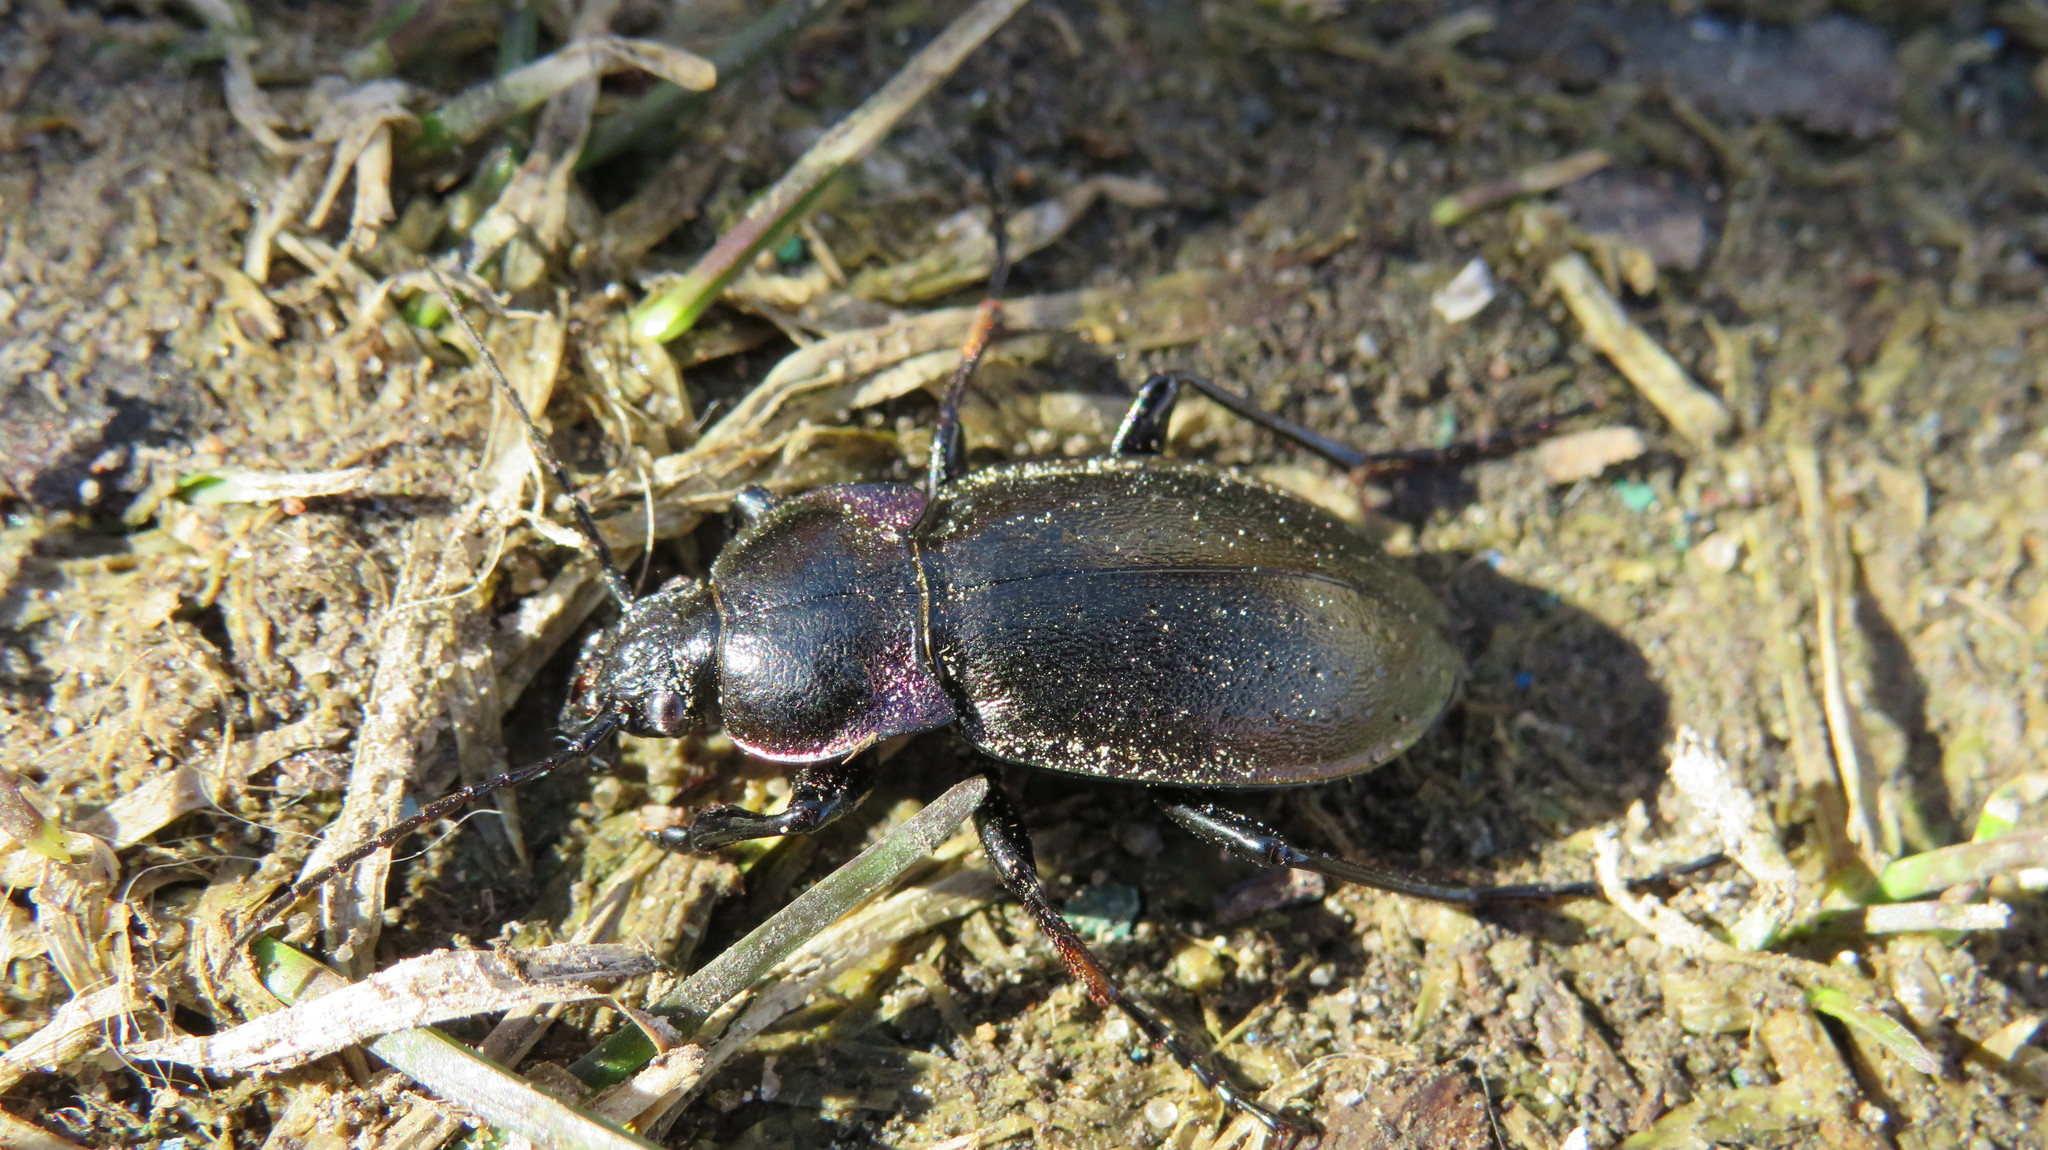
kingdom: Animalia
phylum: Arthropoda
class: Insecta
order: Coleoptera
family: Carabidae
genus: Carabus
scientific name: Carabus nemoralis
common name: European ground beetle
